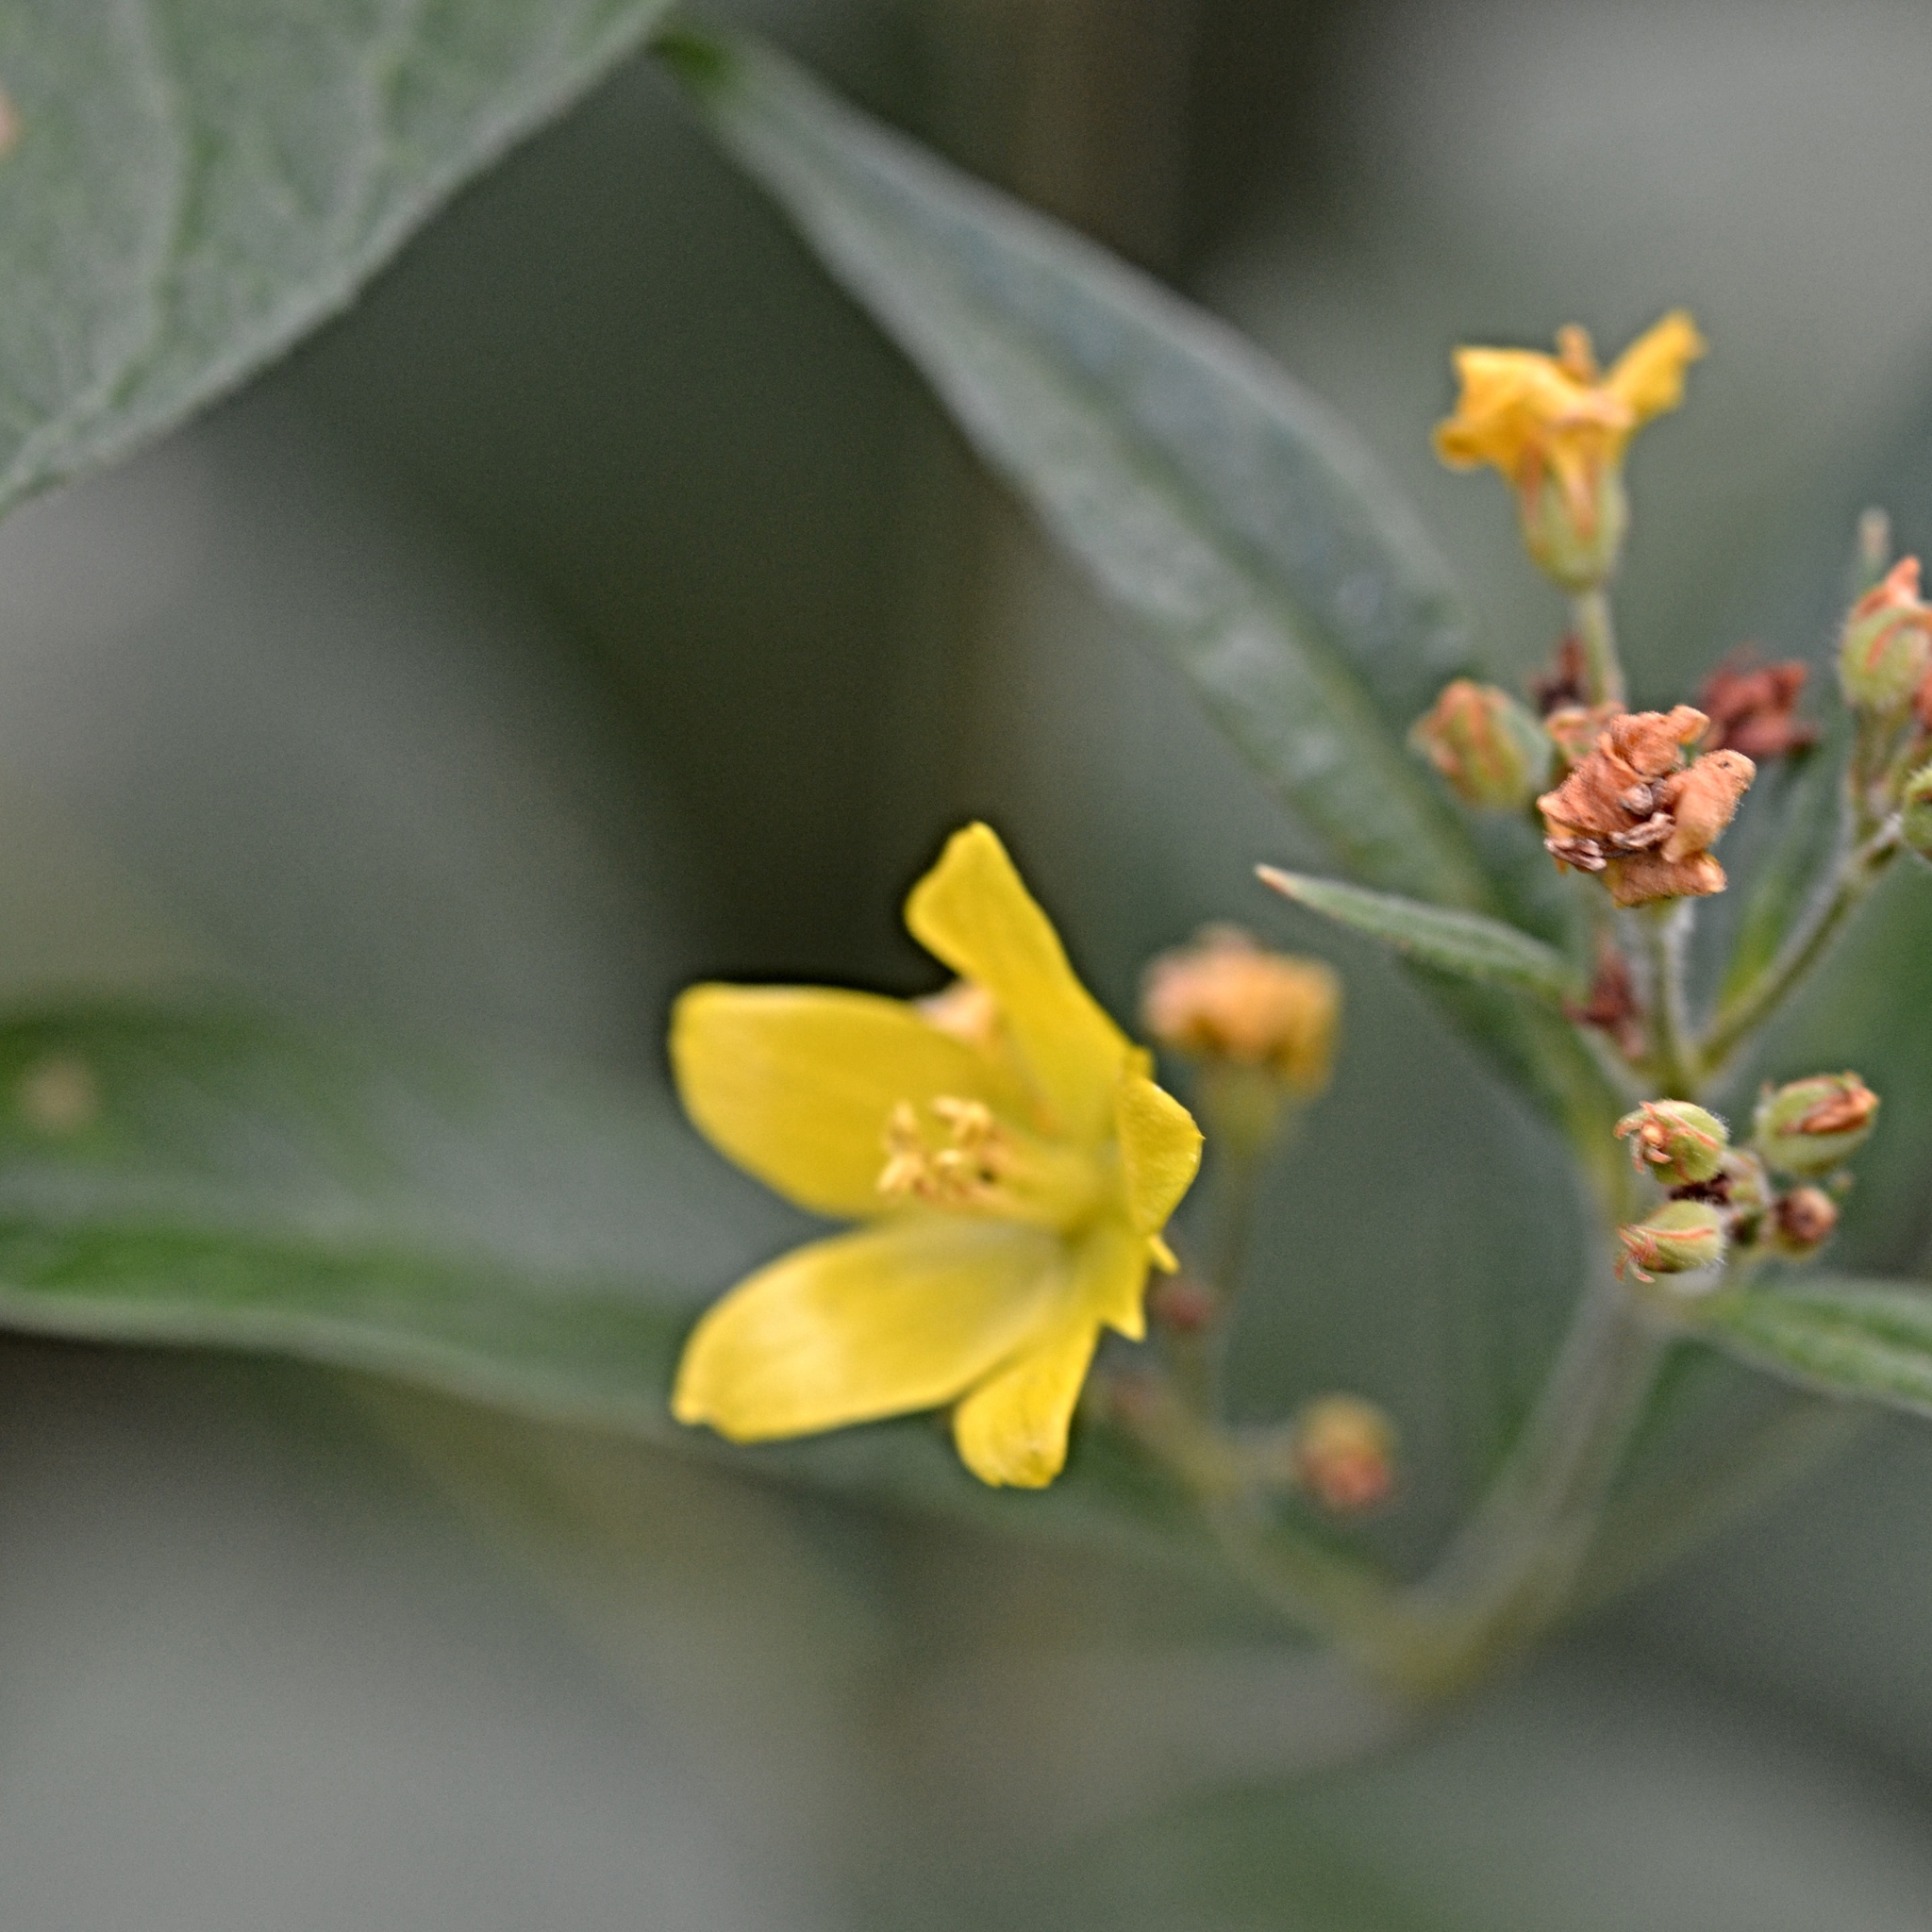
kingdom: Plantae
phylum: Tracheophyta
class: Magnoliopsida
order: Ericales
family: Primulaceae
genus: Lysimachia
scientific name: Lysimachia vulgaris
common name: Yellow loosestrife
